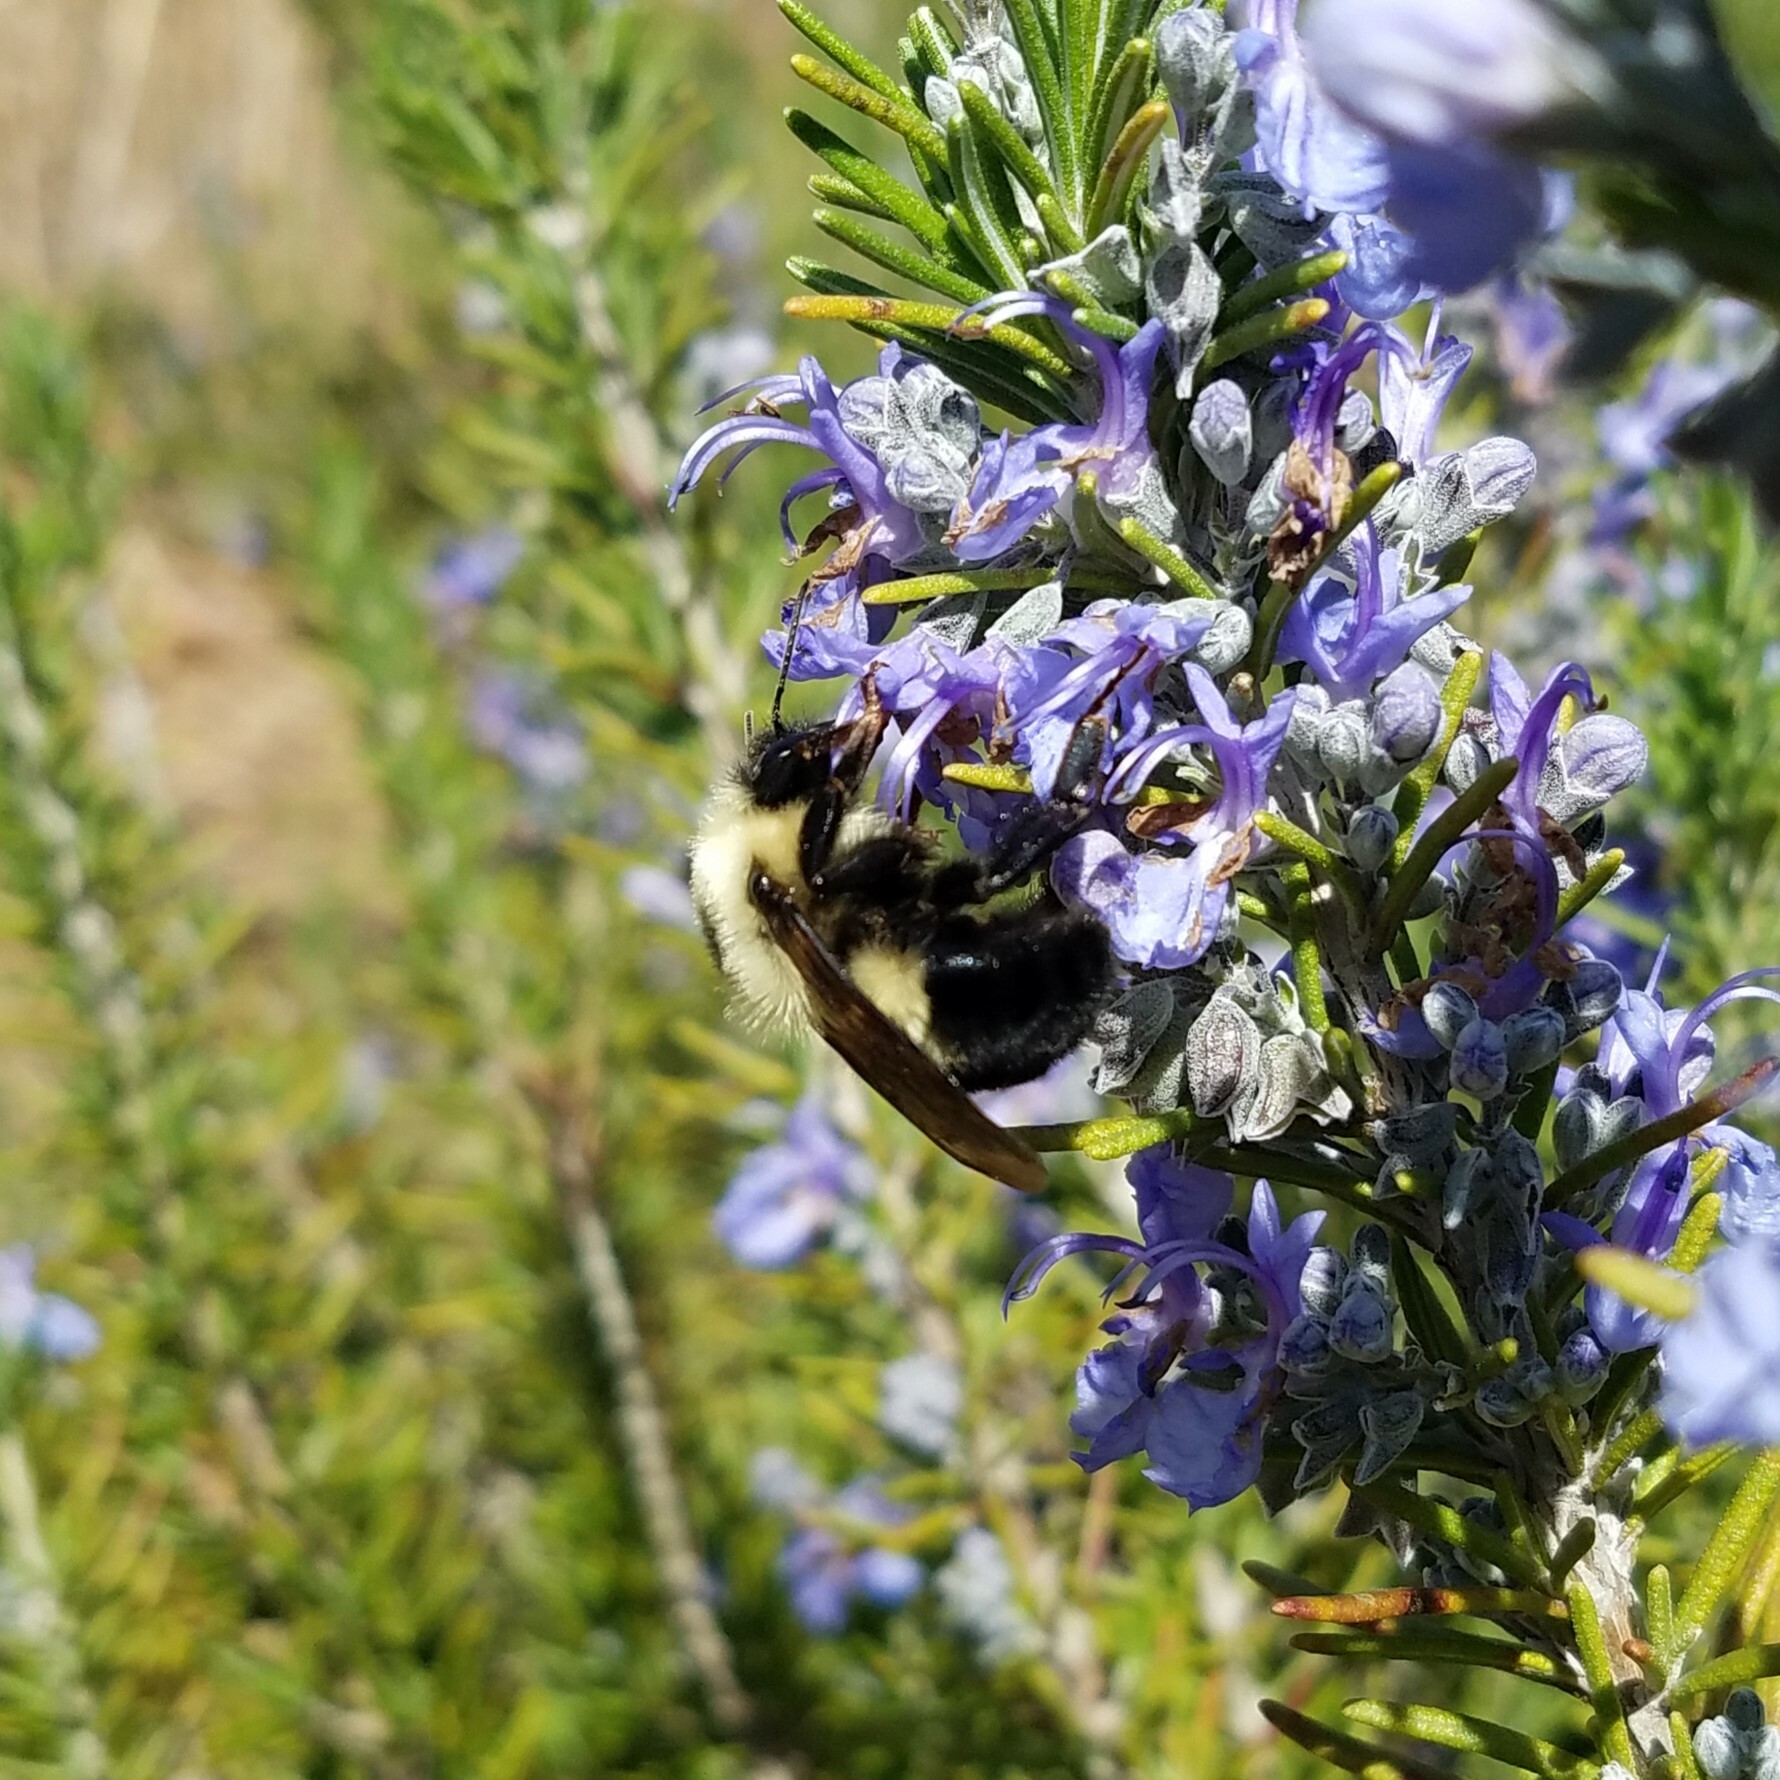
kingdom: Animalia
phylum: Arthropoda
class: Insecta
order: Hymenoptera
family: Apidae
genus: Bombus
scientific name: Bombus bimaculatus
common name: Two-spotted bumble bee
